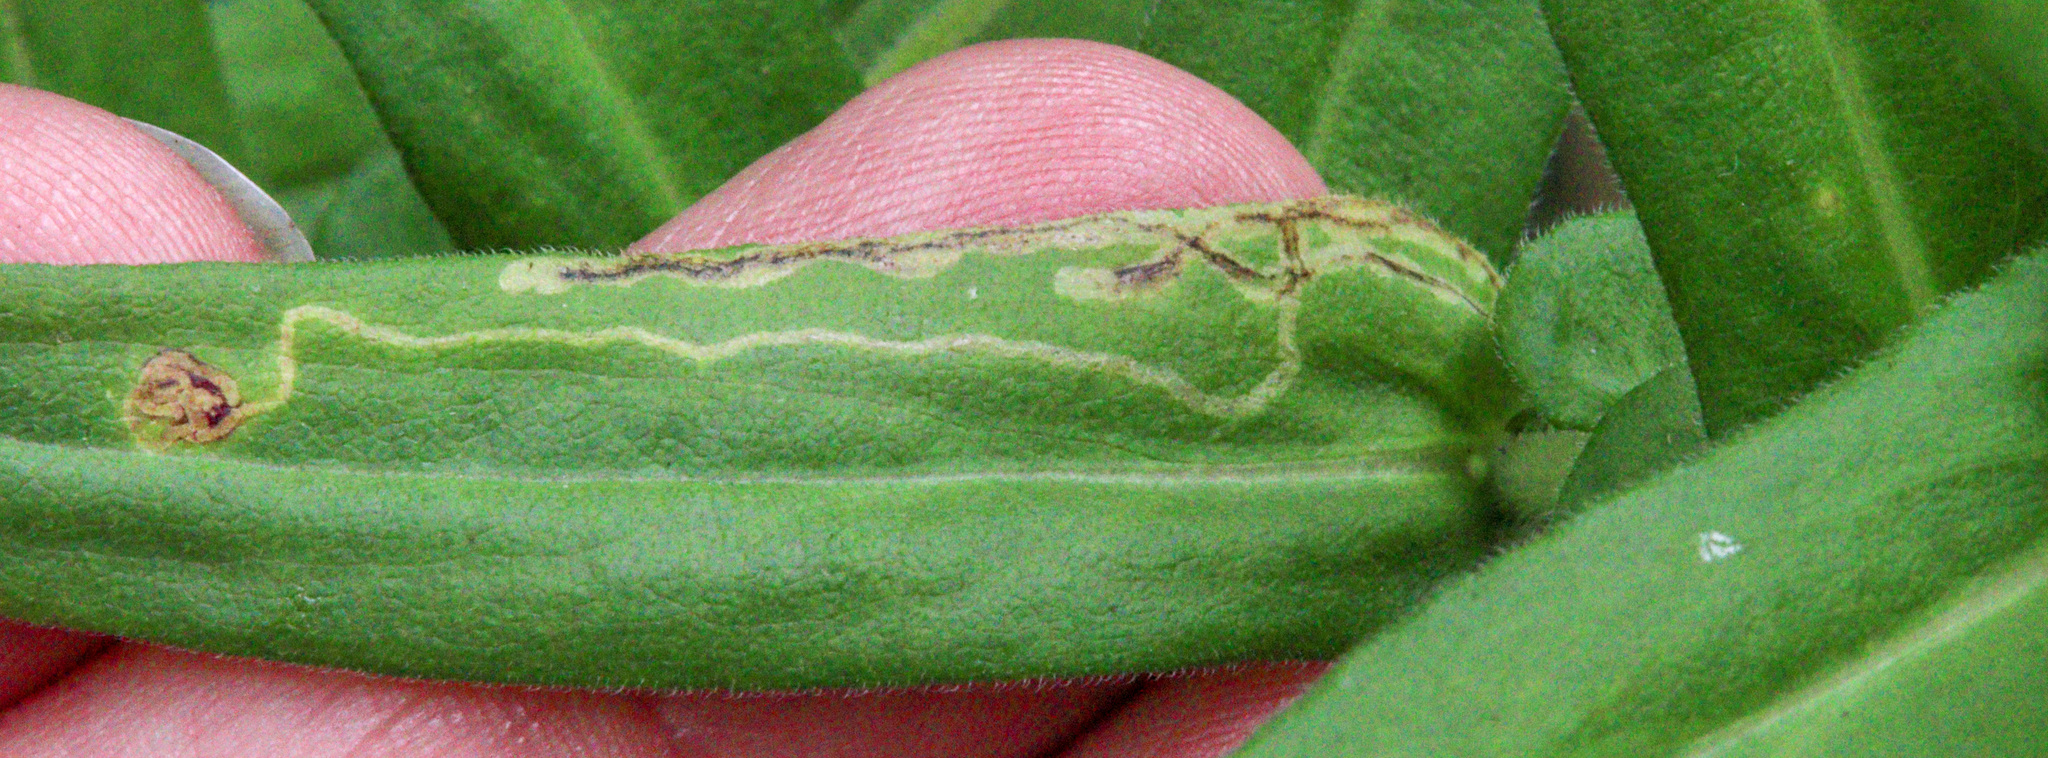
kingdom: Animalia
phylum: Arthropoda
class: Insecta
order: Diptera
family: Agromyzidae
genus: Liriomyza
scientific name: Liriomyza eupatorii
